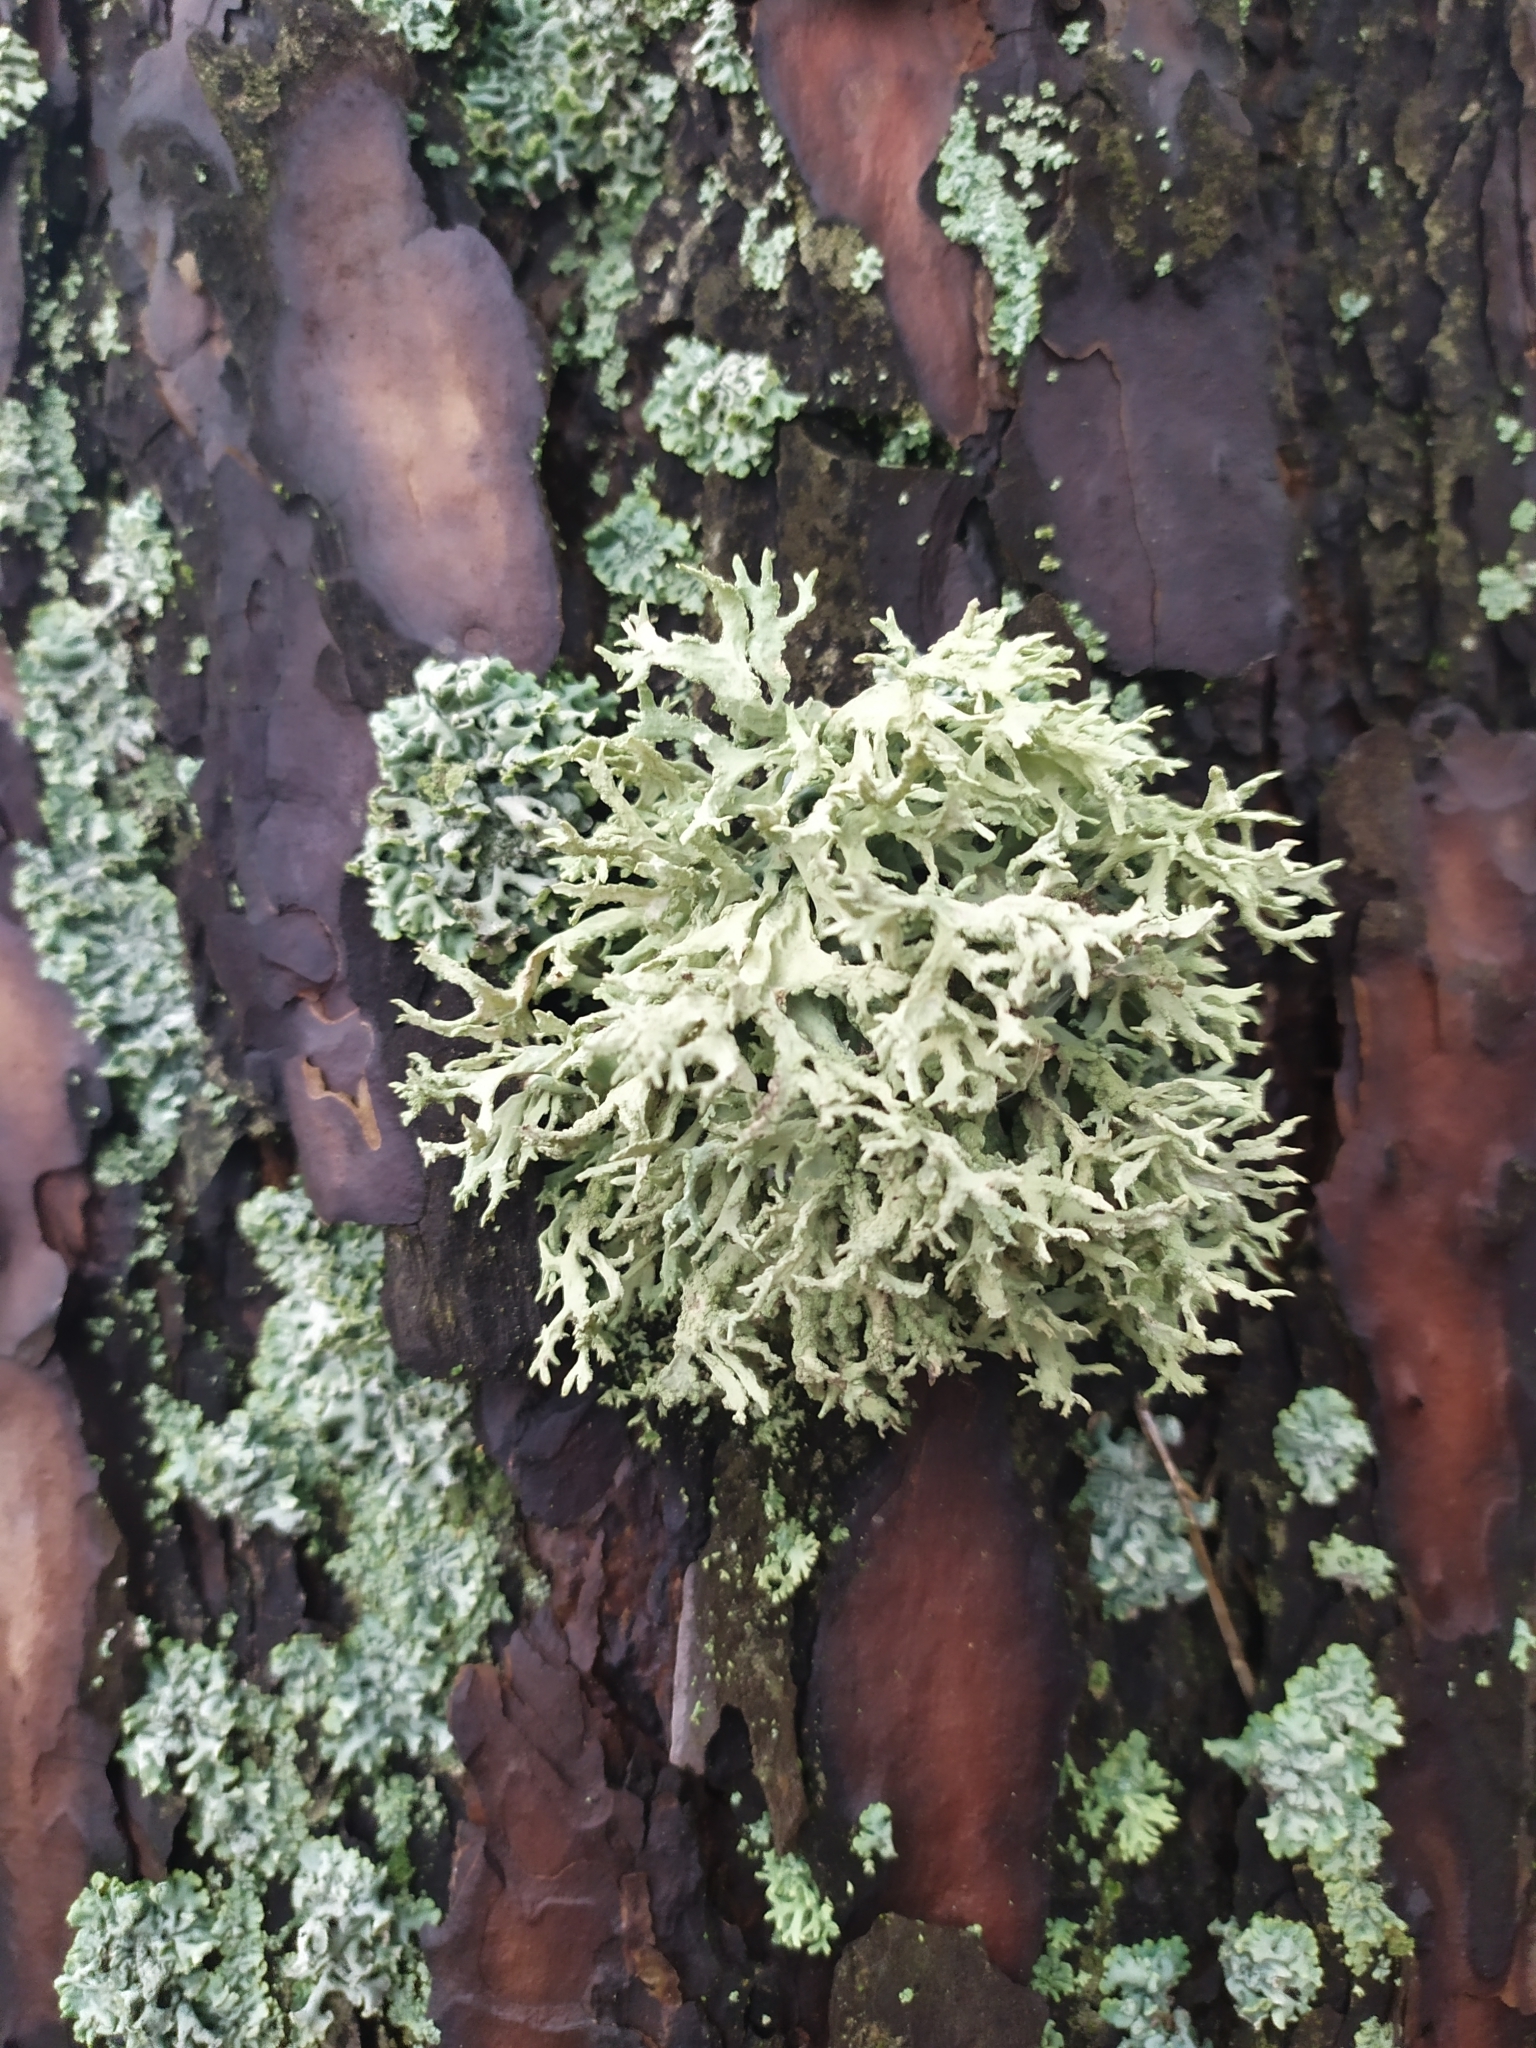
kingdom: Fungi
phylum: Ascomycota
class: Lecanoromycetes
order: Lecanorales
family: Parmeliaceae
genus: Evernia
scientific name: Evernia prunastri
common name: Oak moss
